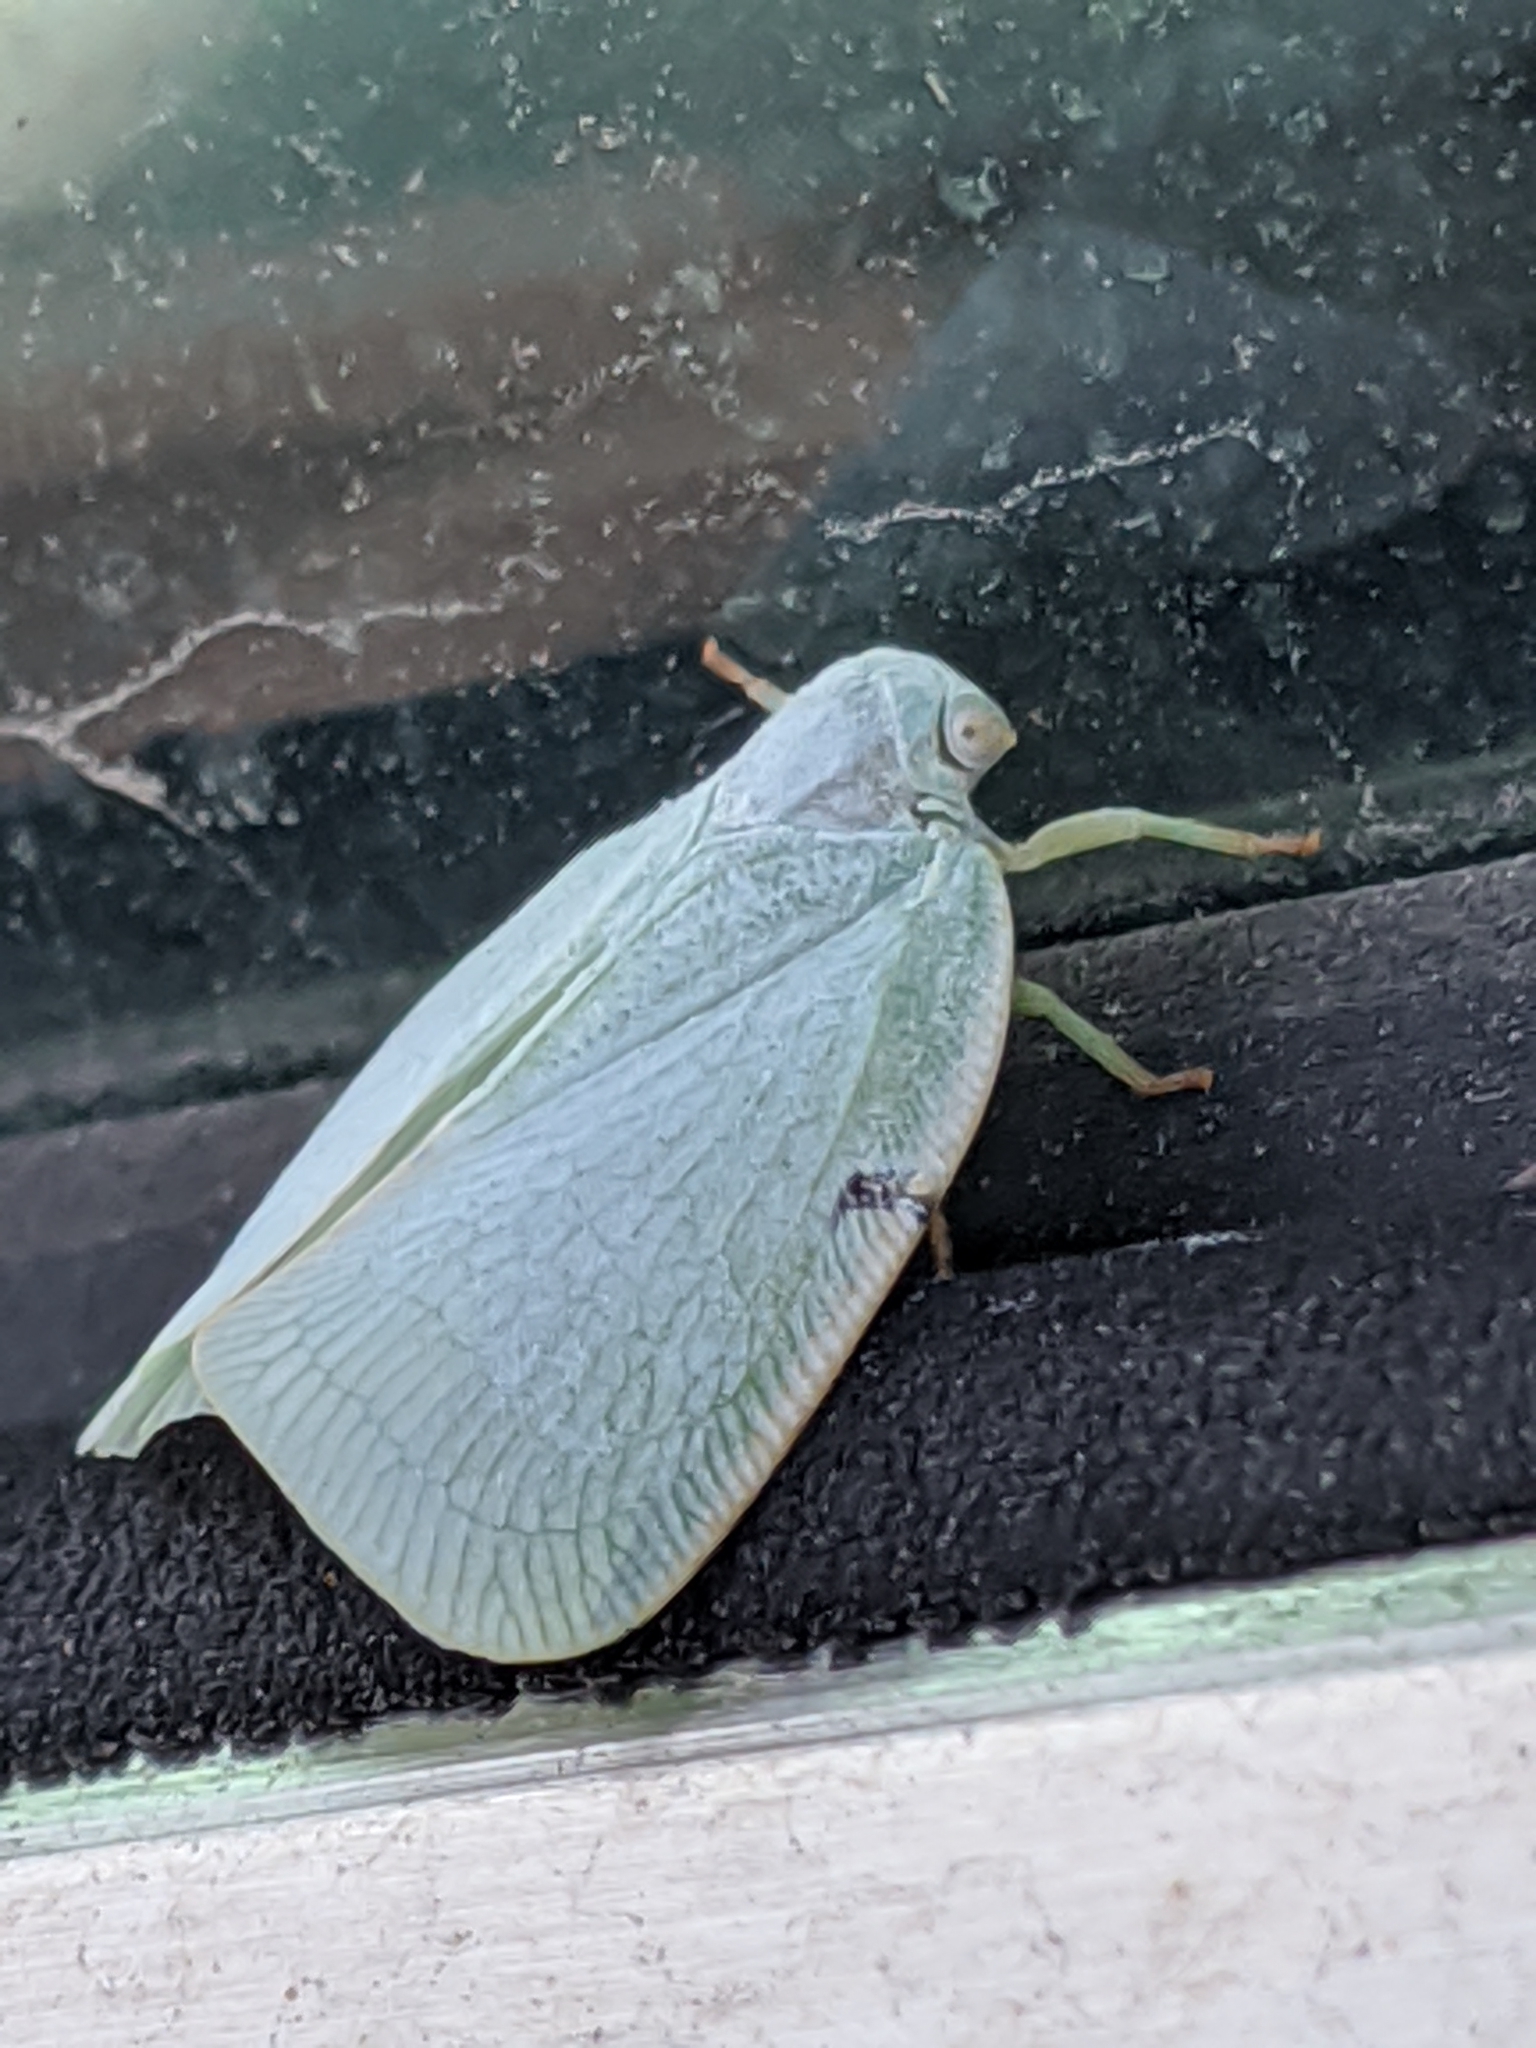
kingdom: Animalia
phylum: Arthropoda
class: Insecta
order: Hemiptera
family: Flatidae
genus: Flatormenis
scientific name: Flatormenis proxima
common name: Northern flatid planthopper
